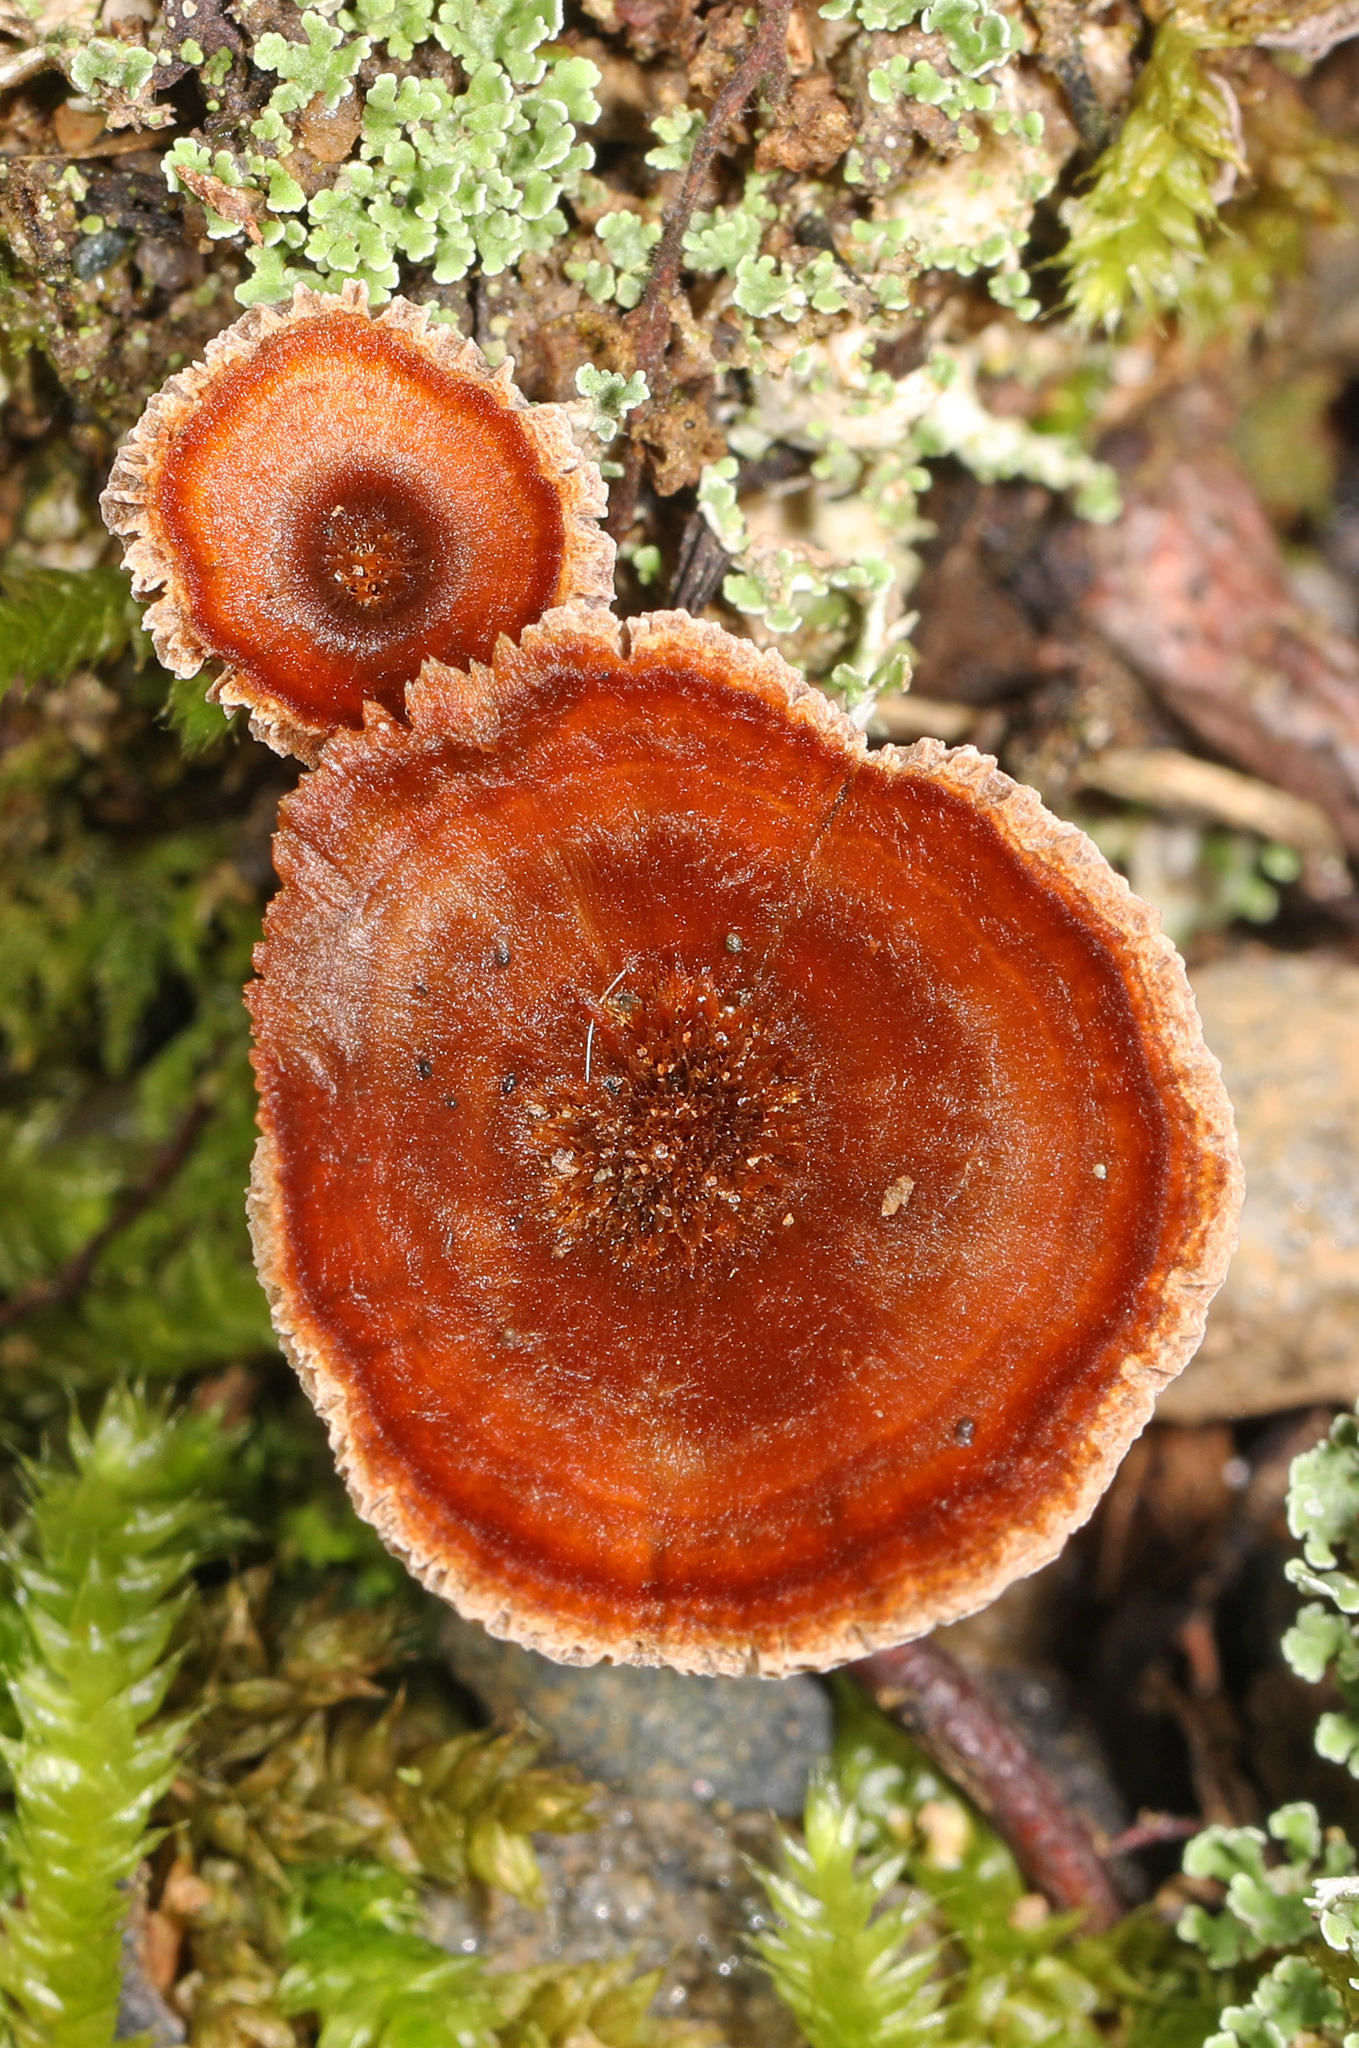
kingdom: Fungi
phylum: Basidiomycota
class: Agaricomycetes
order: Hymenochaetales
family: Hymenochaetaceae
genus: Coltricia
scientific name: Coltricia cinnamomea
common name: Shiny cinnamon polypore
